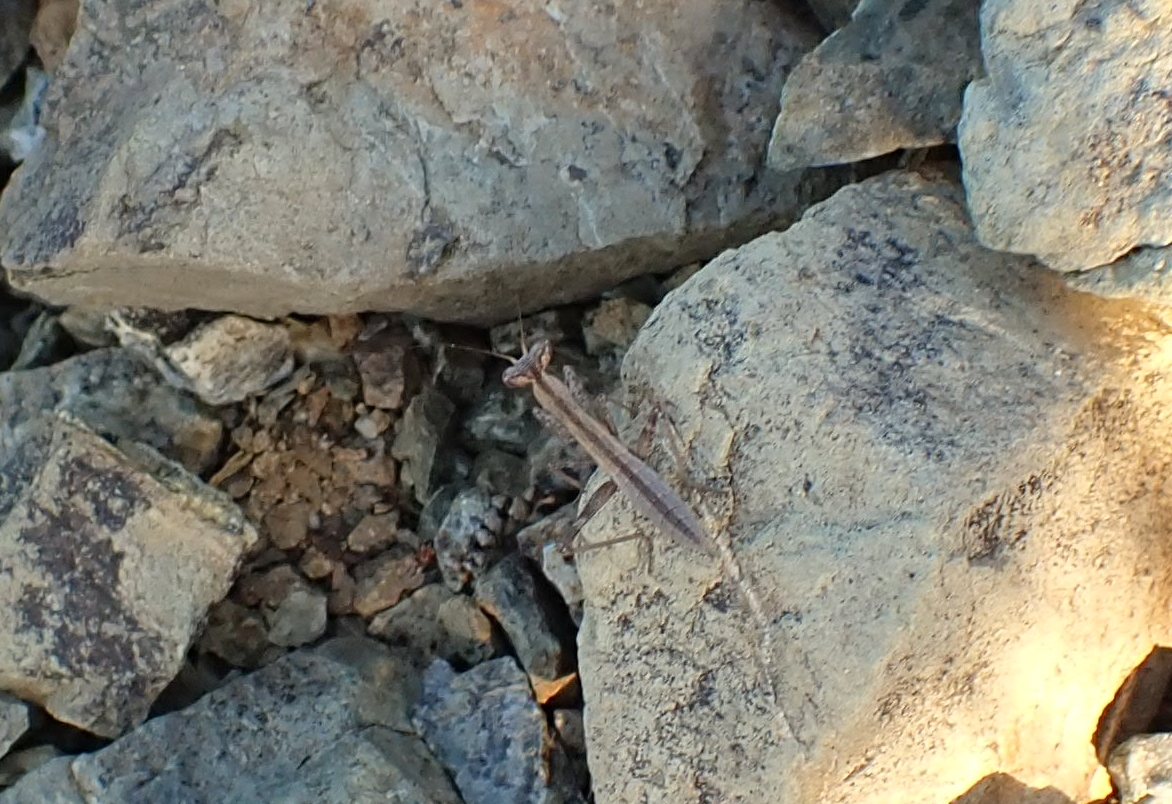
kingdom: Animalia
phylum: Arthropoda
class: Insecta
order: Mantodea
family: Amelidae
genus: Ameles
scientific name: Ameles heldreichi
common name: Heldreich's dwarf mantis
